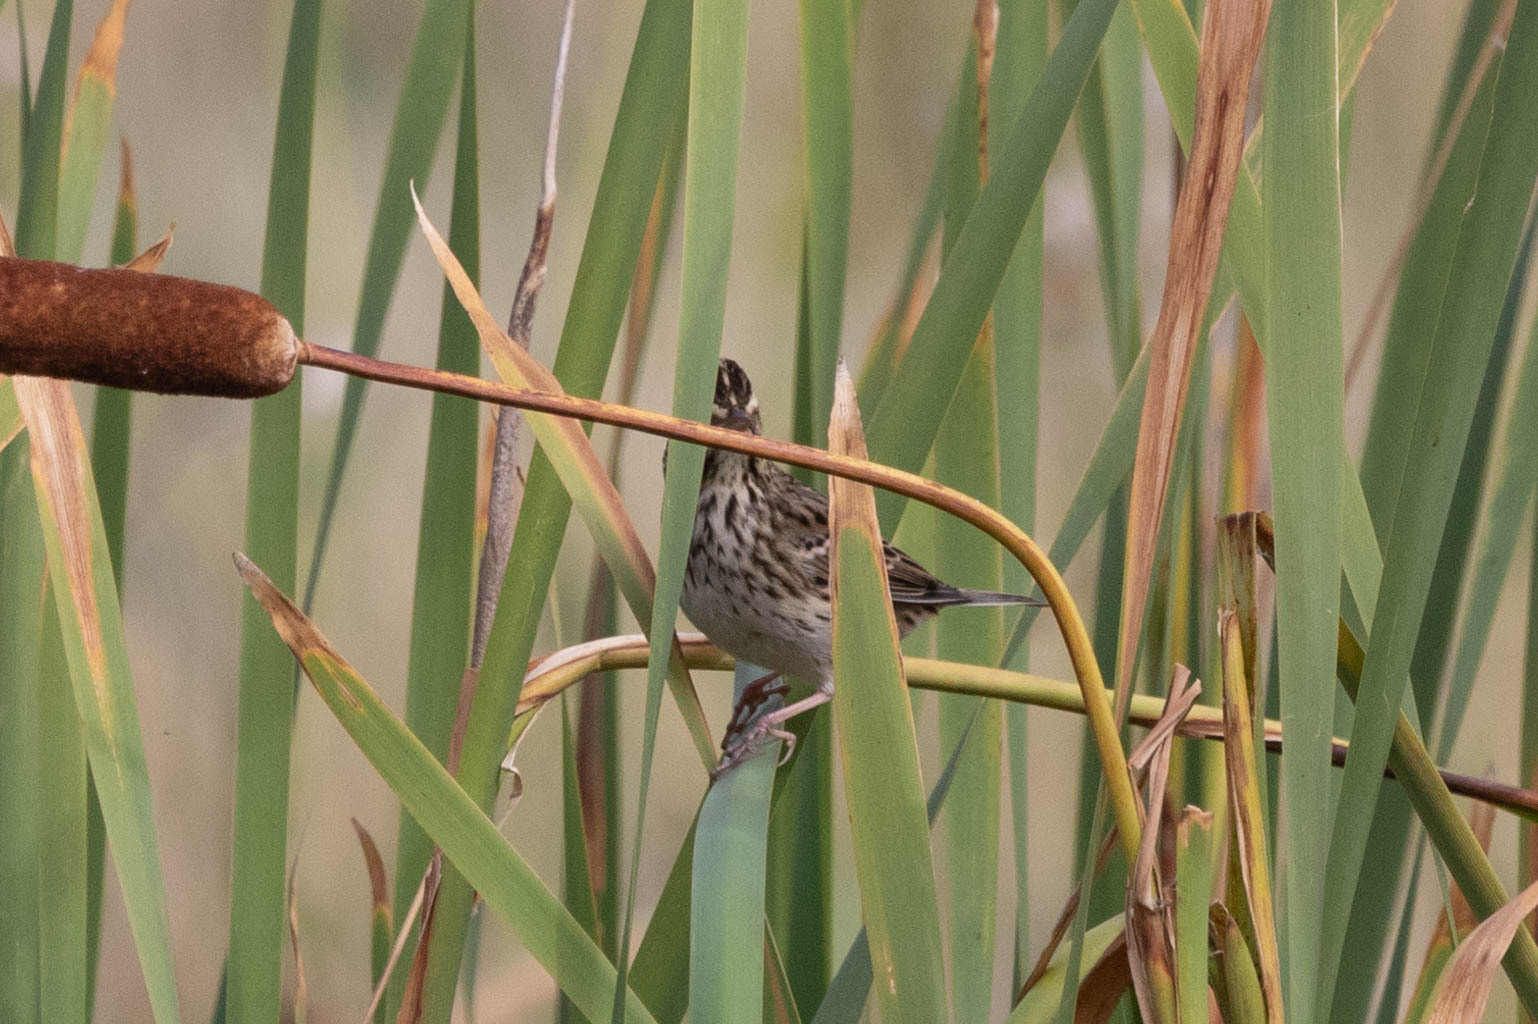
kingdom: Animalia
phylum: Chordata
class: Aves
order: Passeriformes
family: Passerellidae
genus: Passerculus
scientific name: Passerculus sandwichensis
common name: Savannah sparrow
